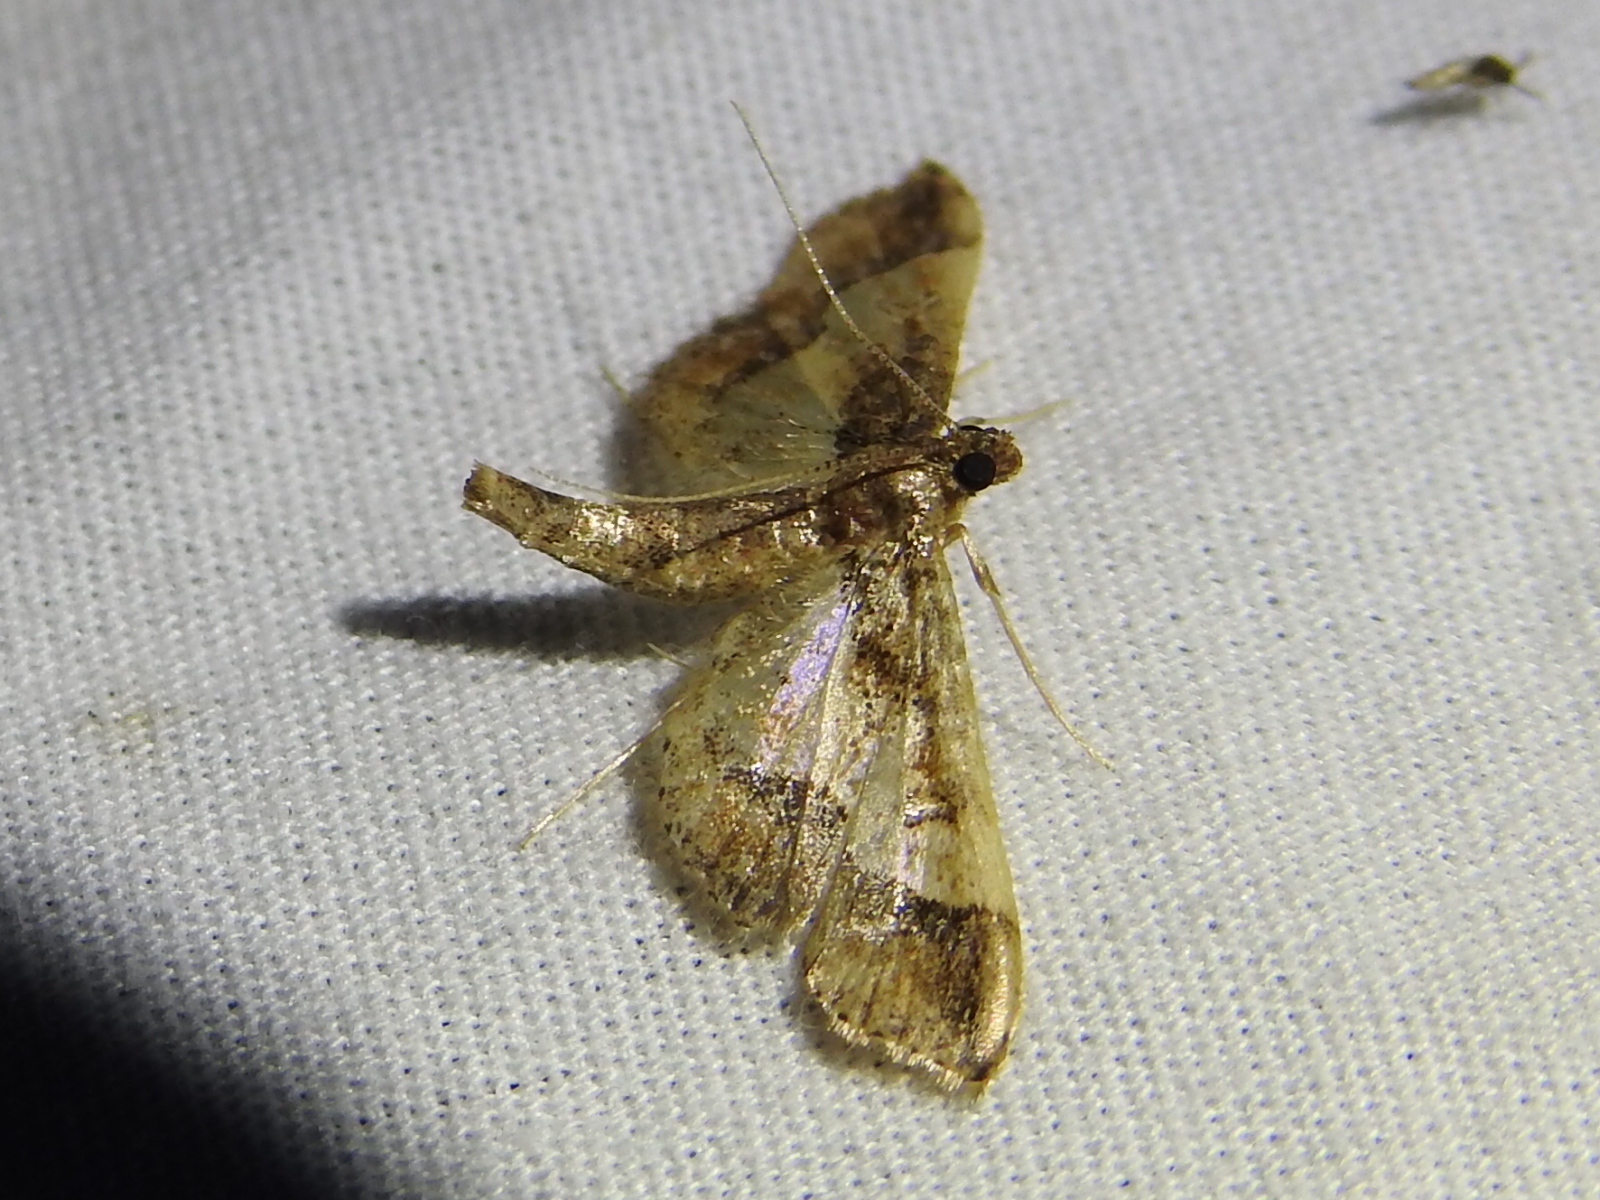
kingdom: Animalia
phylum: Arthropoda
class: Insecta
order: Lepidoptera
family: Crambidae
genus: Hydriris
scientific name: Hydriris ornatalis
